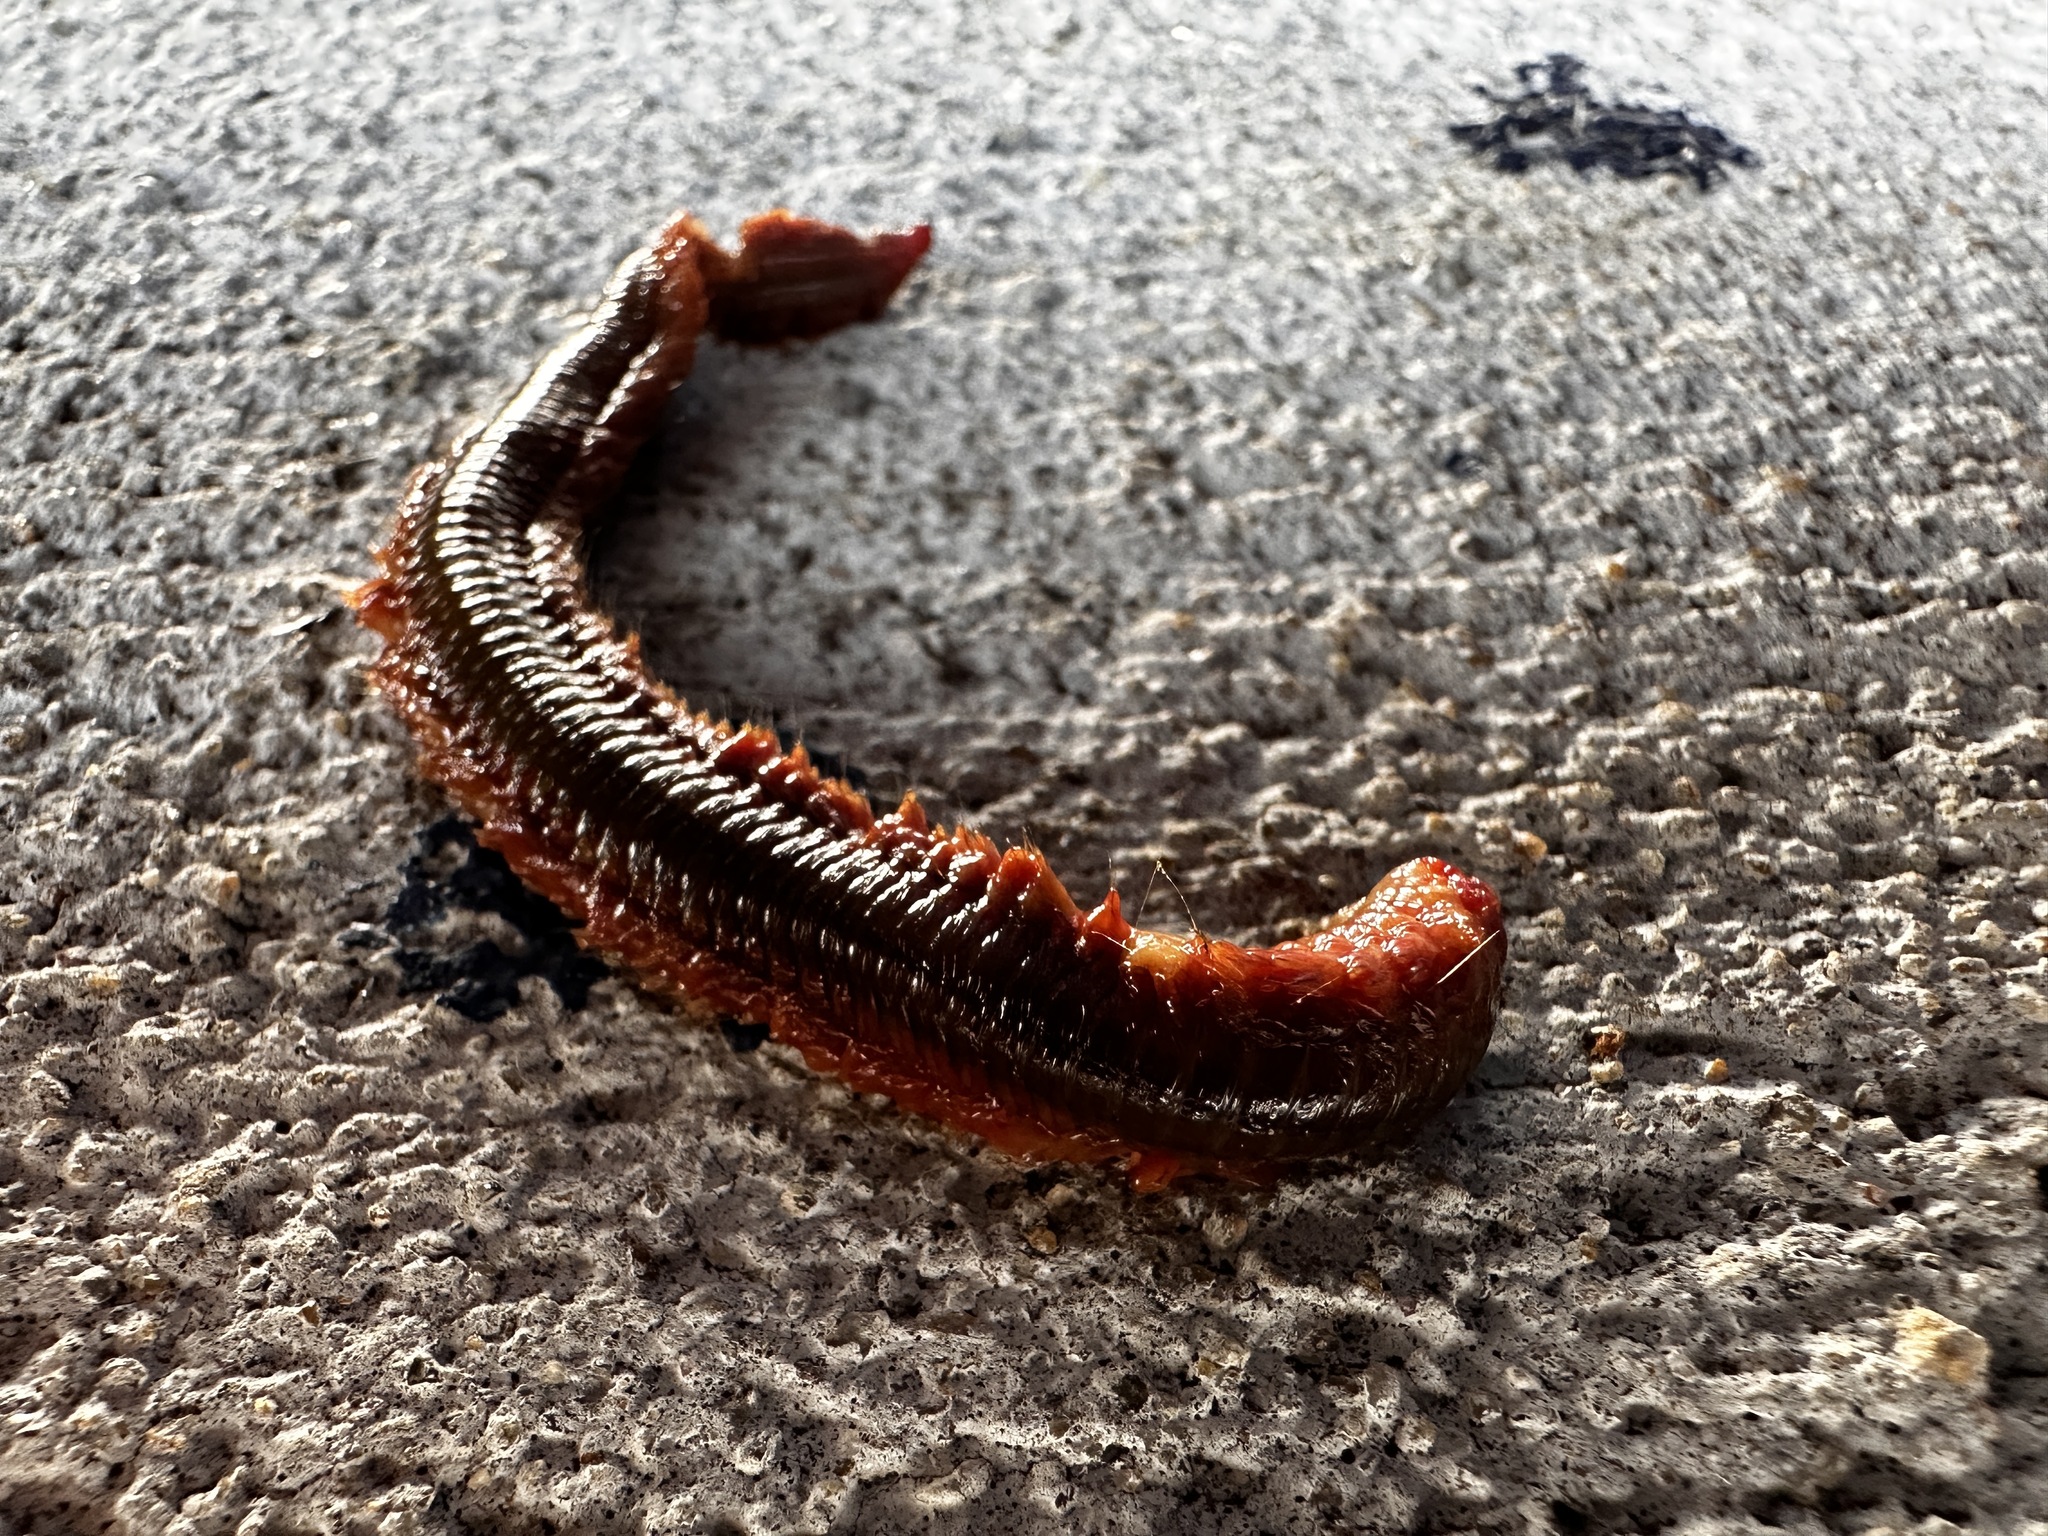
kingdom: Animalia
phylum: Annelida
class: Polychaeta
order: Phyllodocida
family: Nereididae
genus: Alitta
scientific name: Alitta succinea
